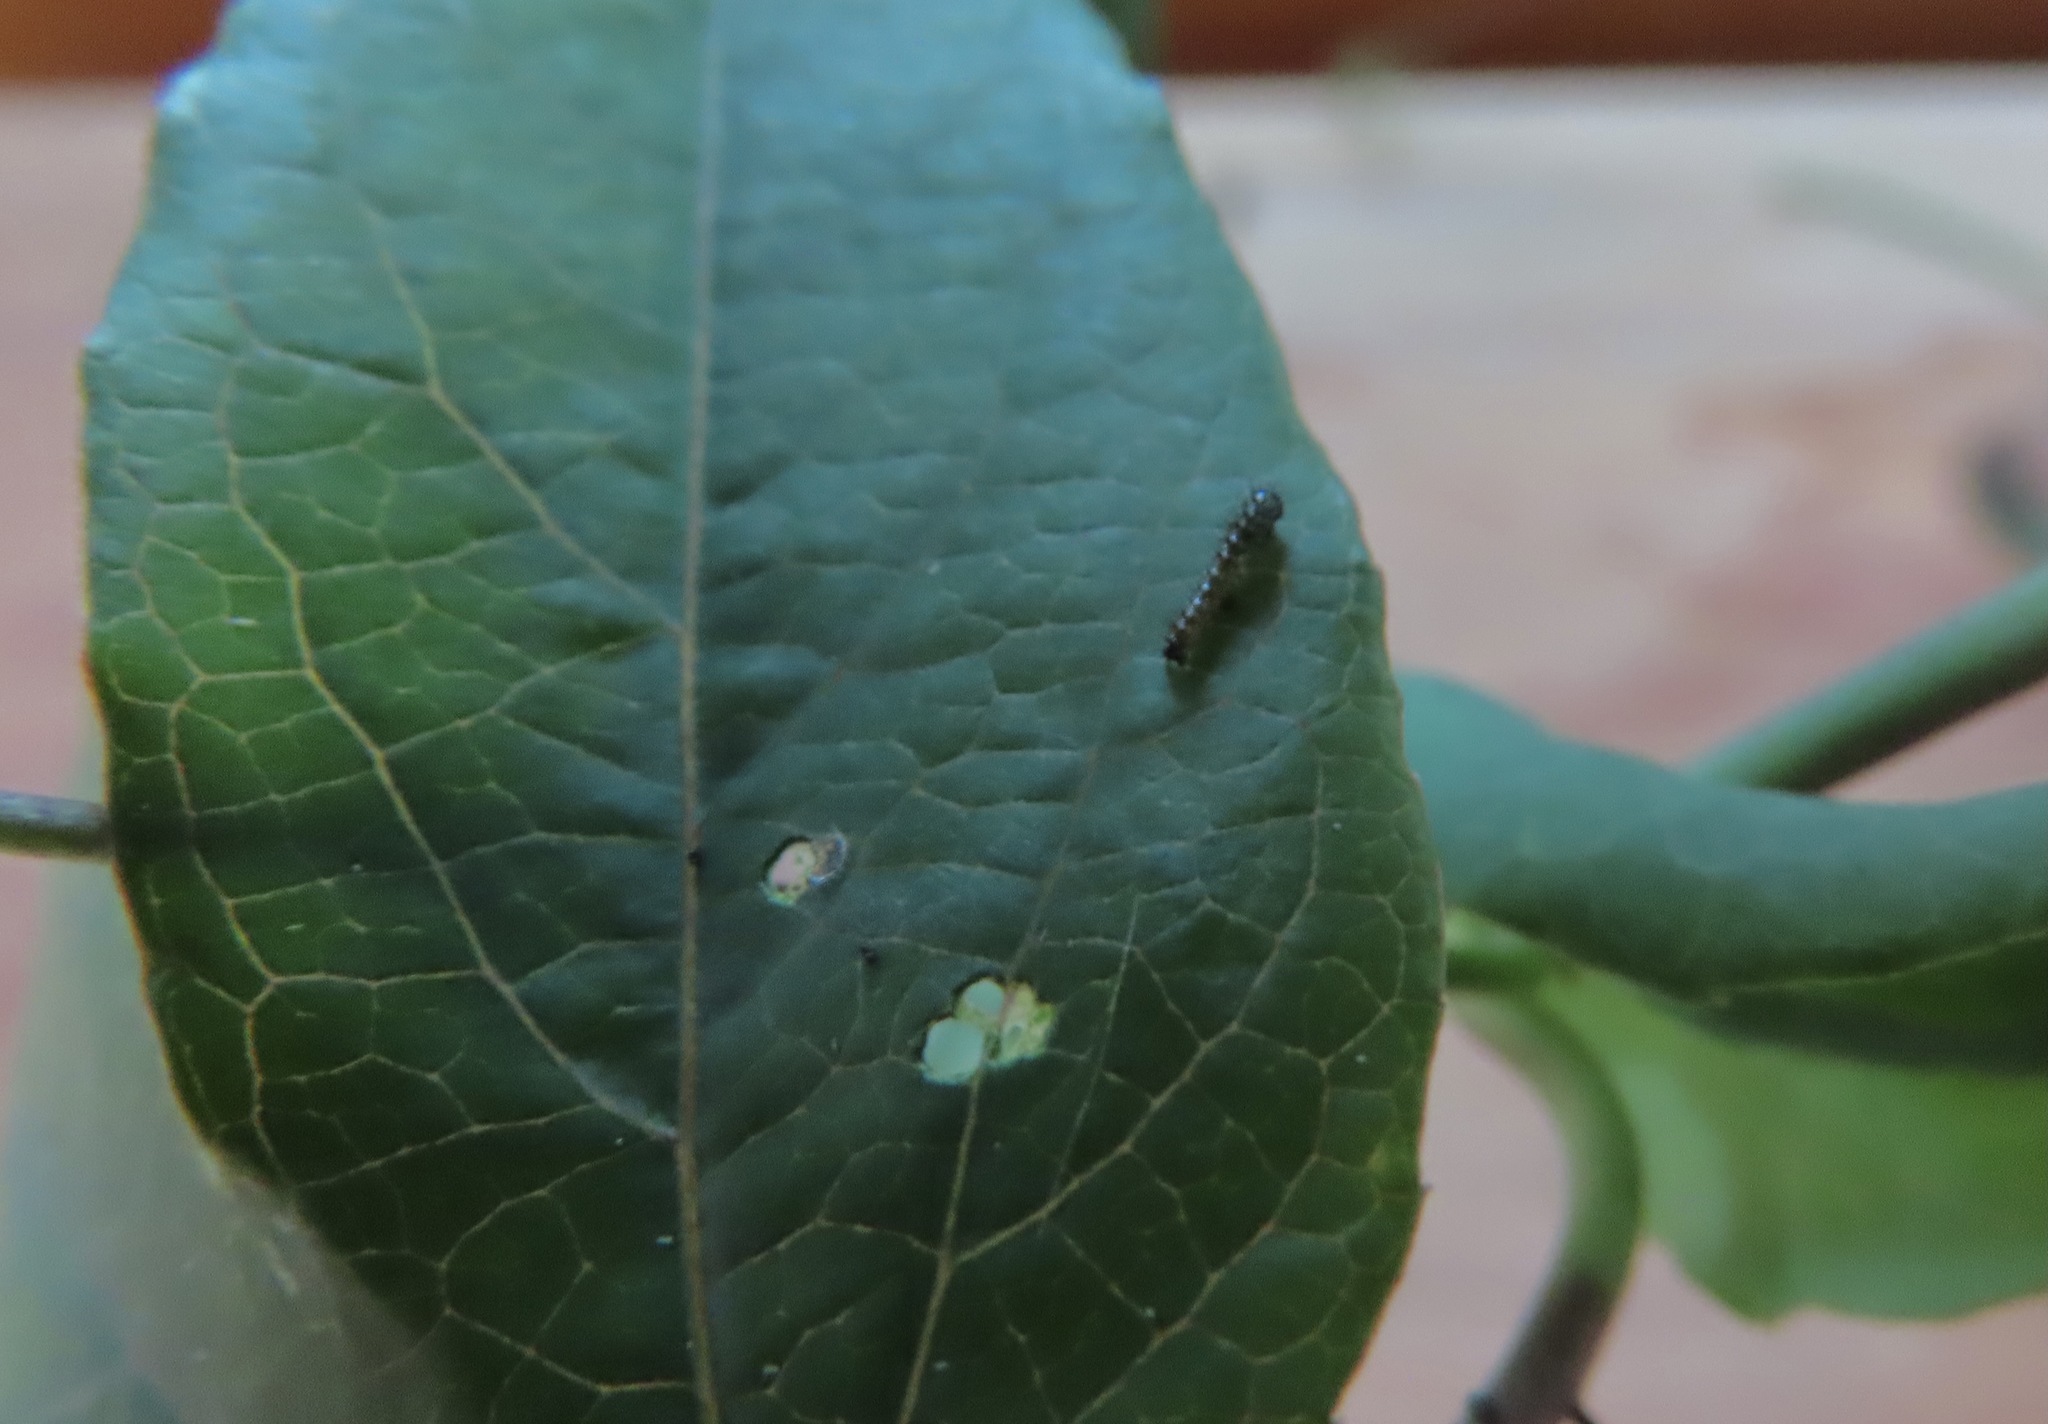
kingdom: Animalia
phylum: Arthropoda
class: Insecta
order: Lepidoptera
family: Nymphalidae
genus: Dione
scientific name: Dione vanillae
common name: Gulf fritillary
